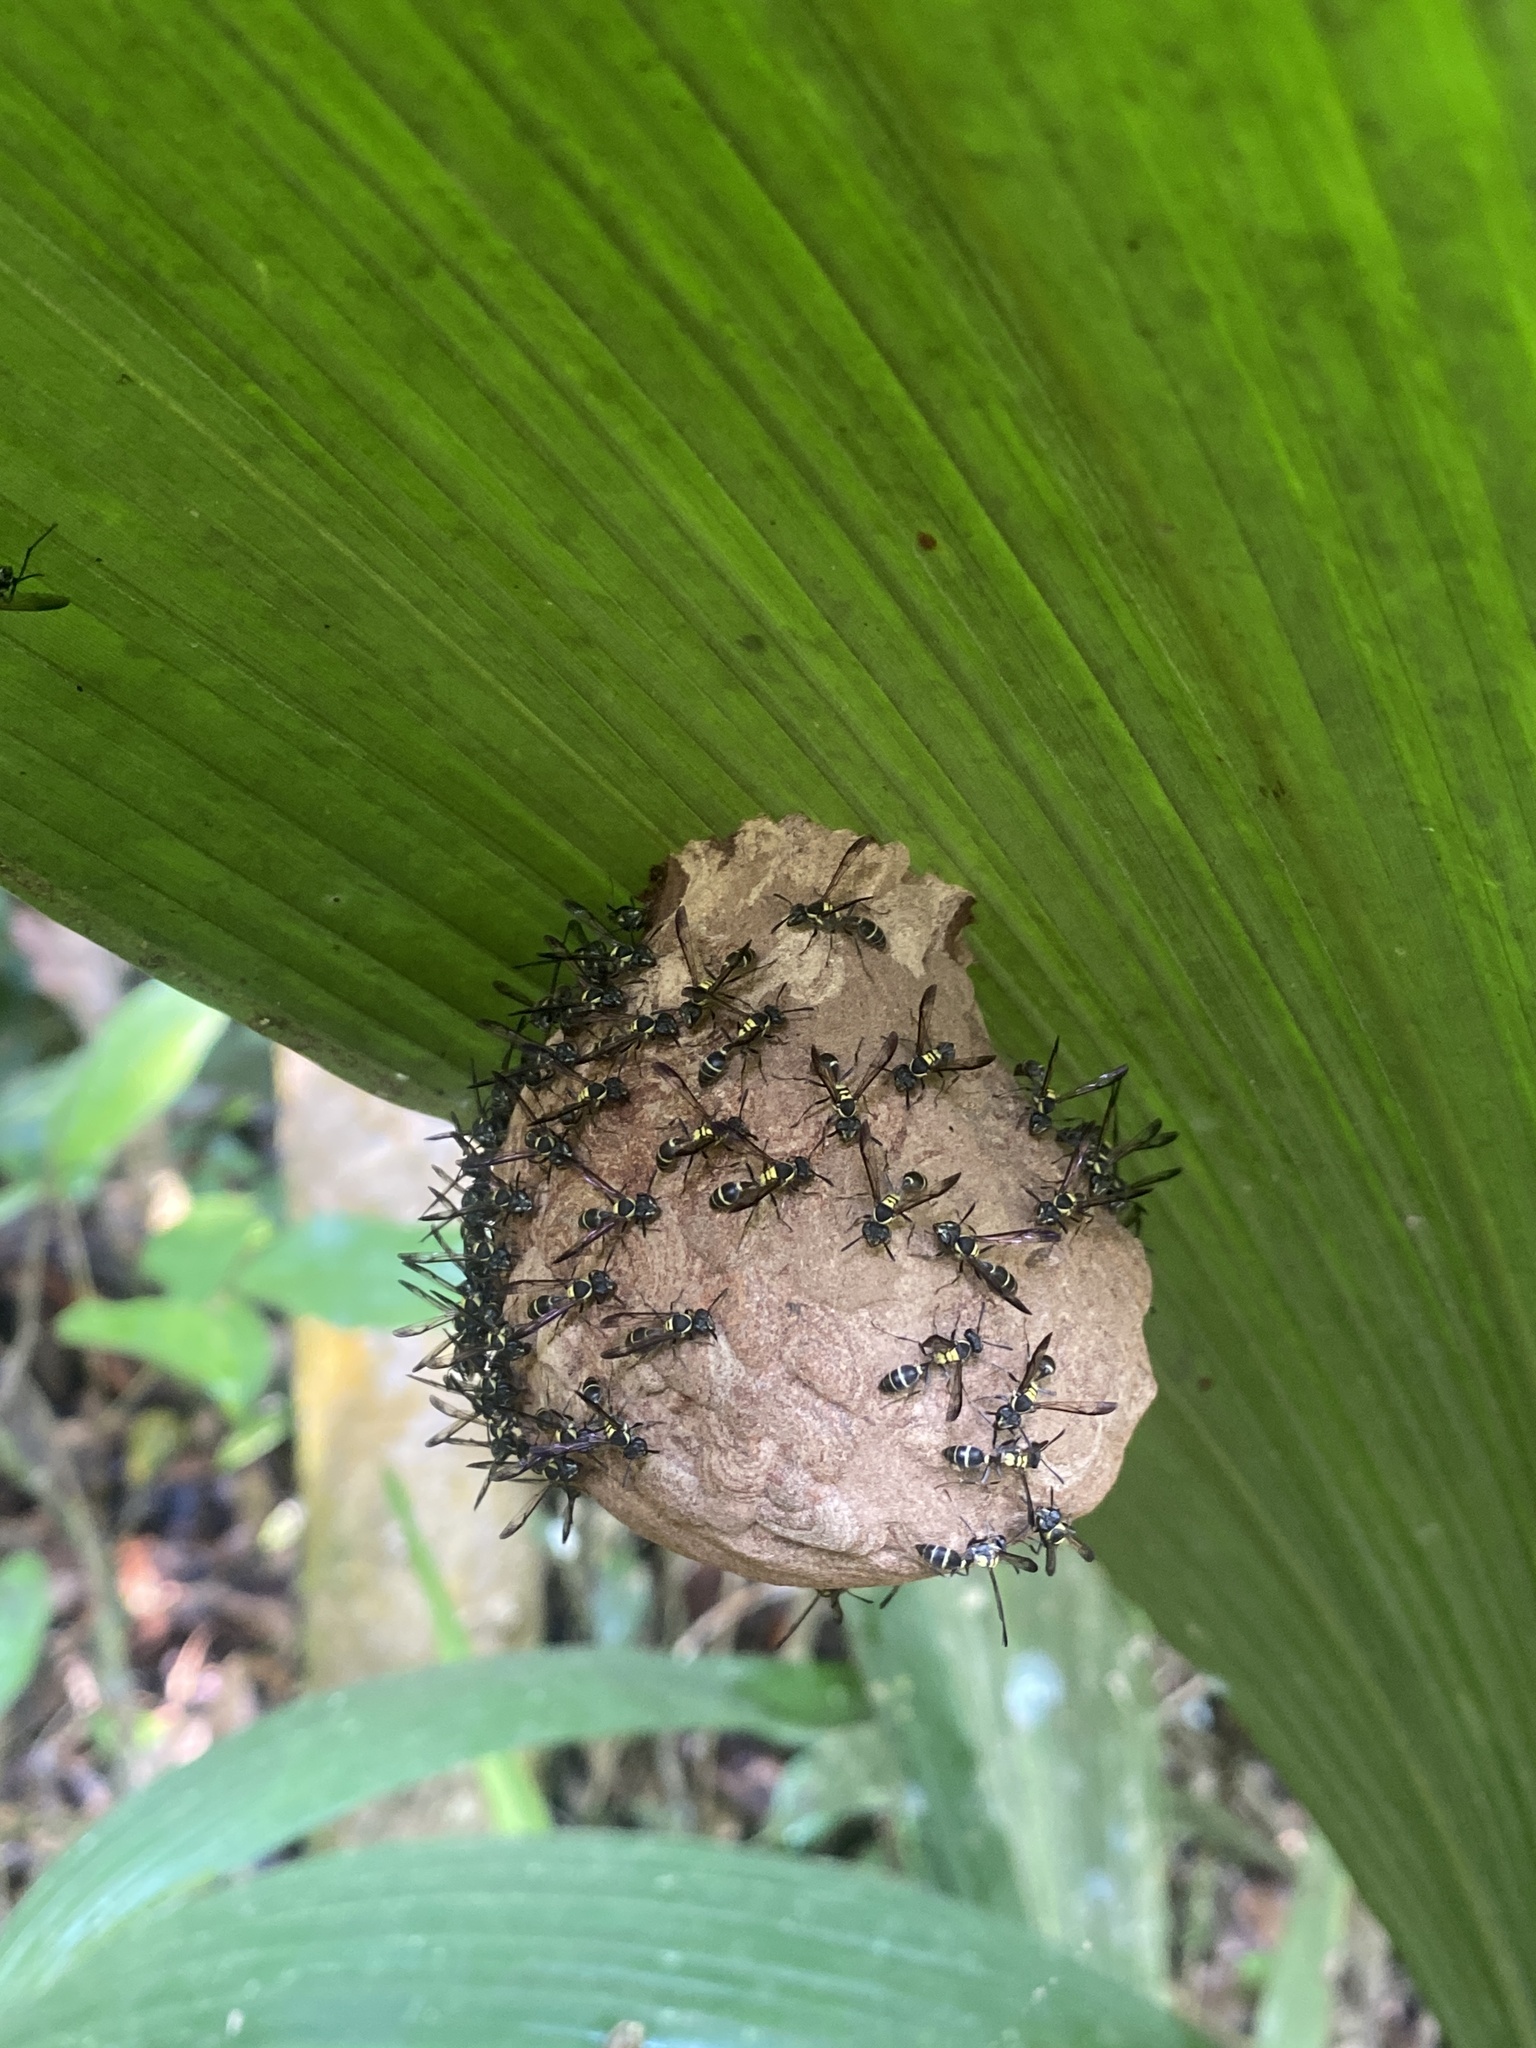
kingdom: Animalia
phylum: Arthropoda
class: Insecta
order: Hymenoptera
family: Eumenidae
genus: Polybia
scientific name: Polybia occidentalis
